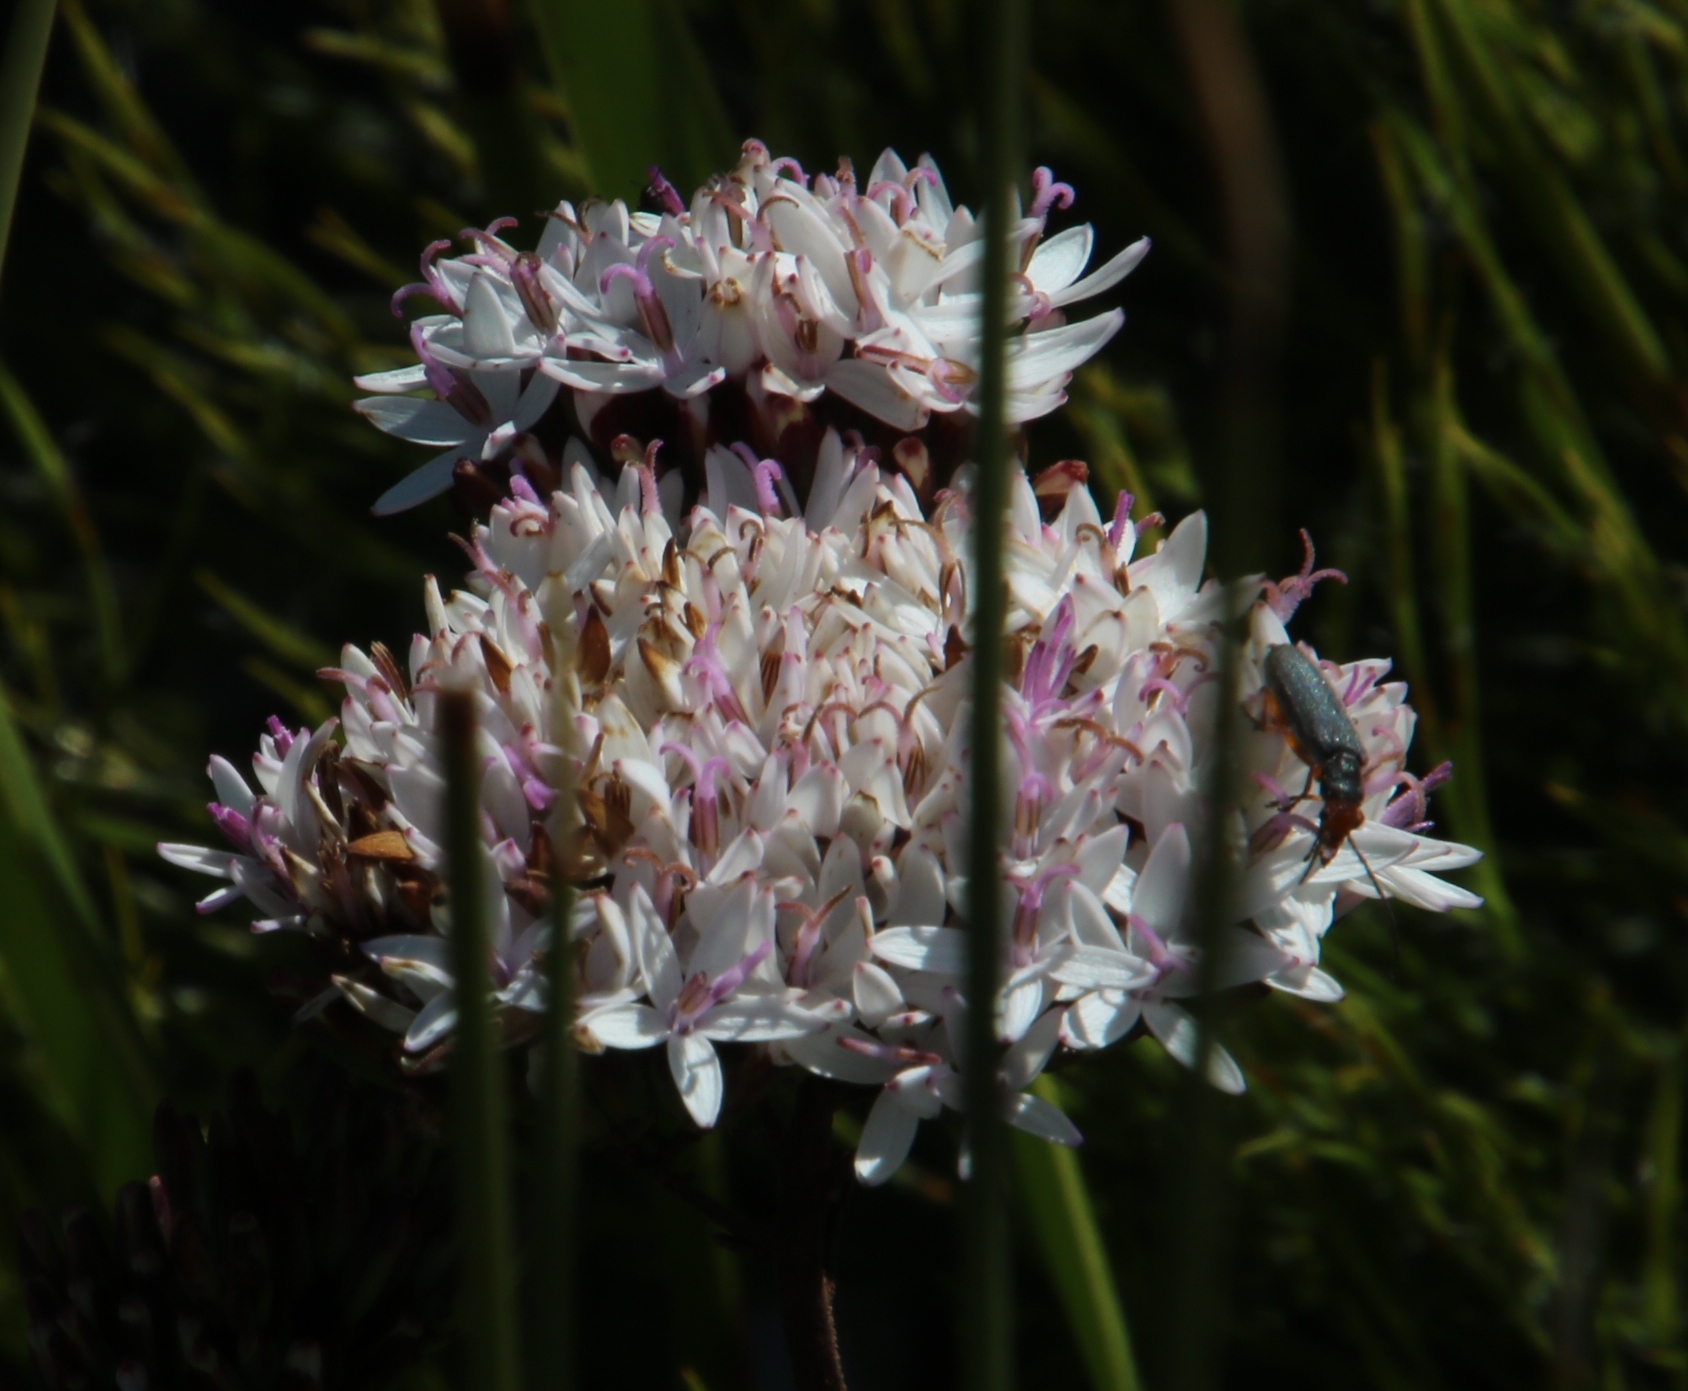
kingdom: Plantae
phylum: Tracheophyta
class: Magnoliopsida
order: Asterales
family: Asteraceae
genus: Corymbium
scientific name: Corymbium enerve
